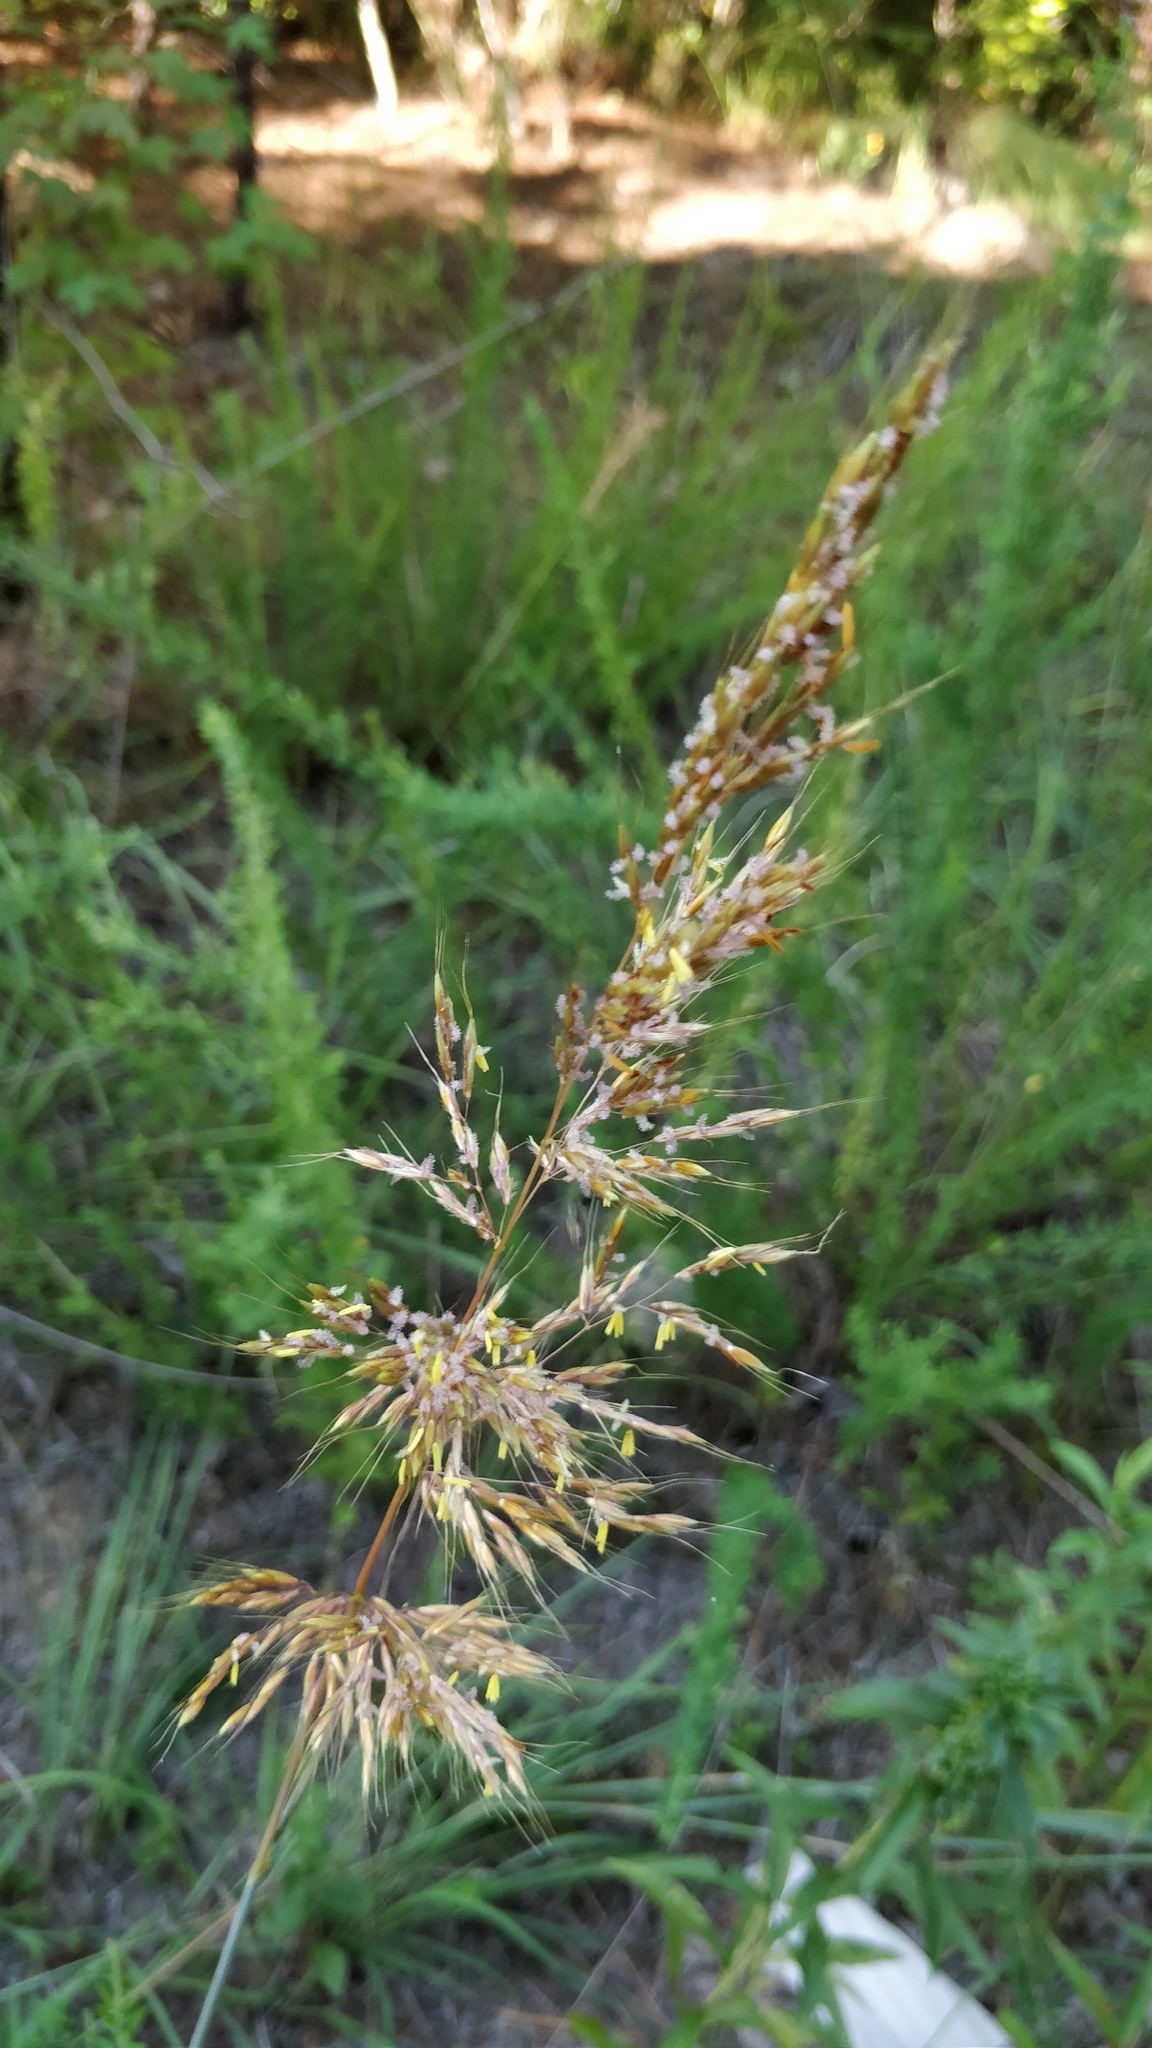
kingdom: Plantae
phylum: Tracheophyta
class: Liliopsida
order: Poales
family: Poaceae
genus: Sorghastrum
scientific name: Sorghastrum nutans
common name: Indian grass
